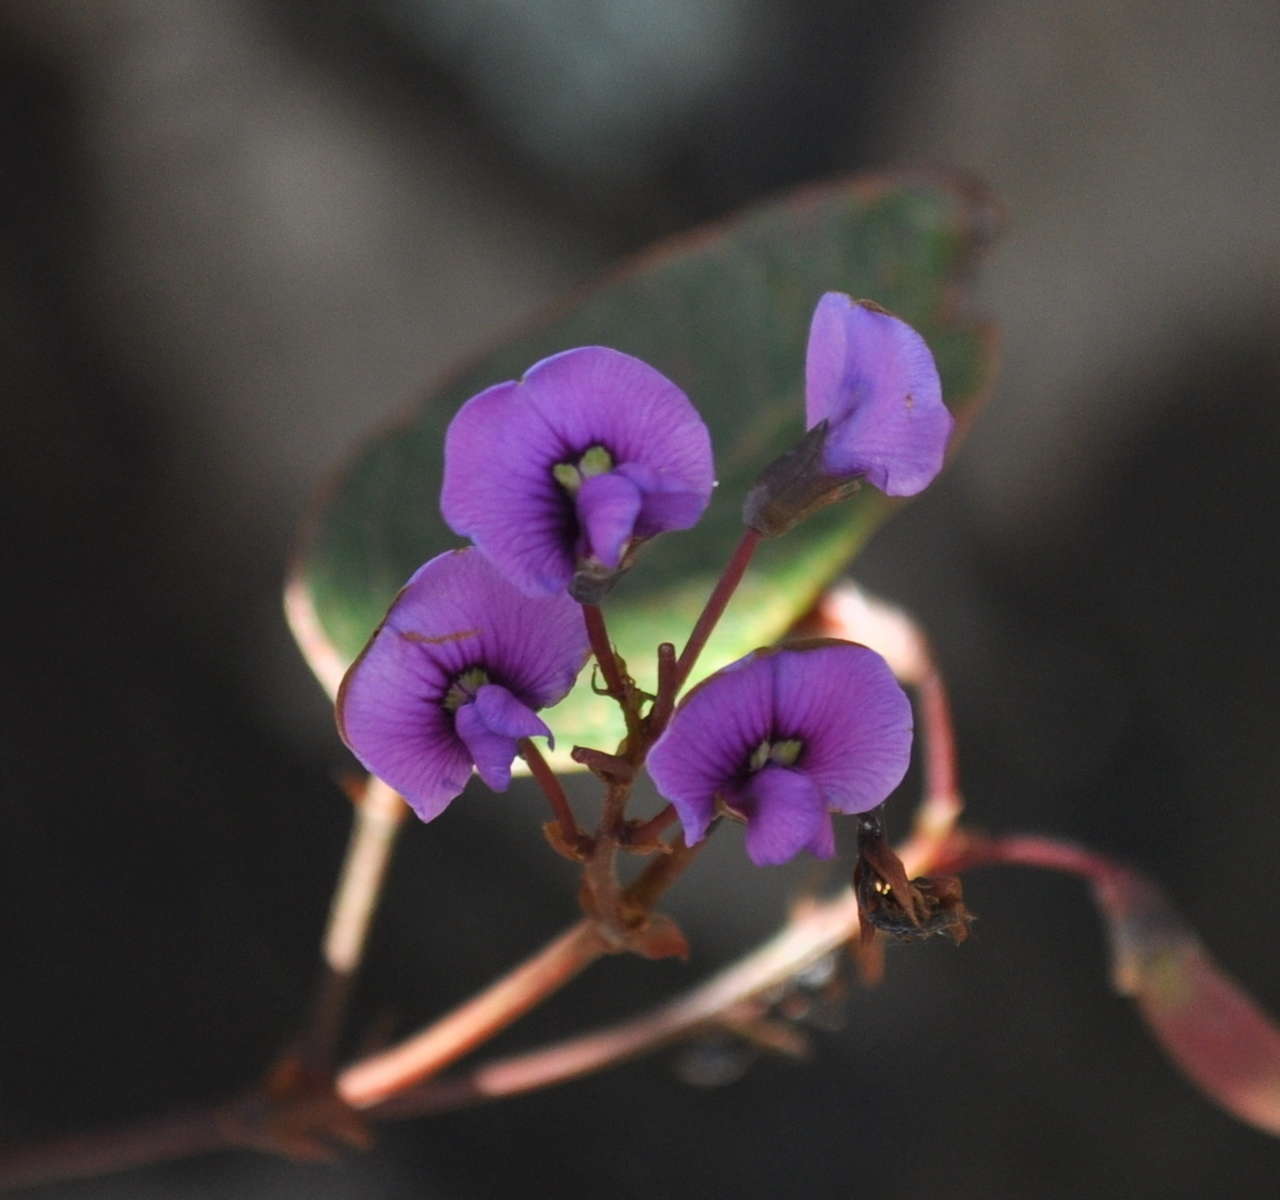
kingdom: Plantae
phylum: Tracheophyta
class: Magnoliopsida
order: Fabales
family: Fabaceae
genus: Hardenbergia
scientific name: Hardenbergia violacea
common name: Coral-pea
